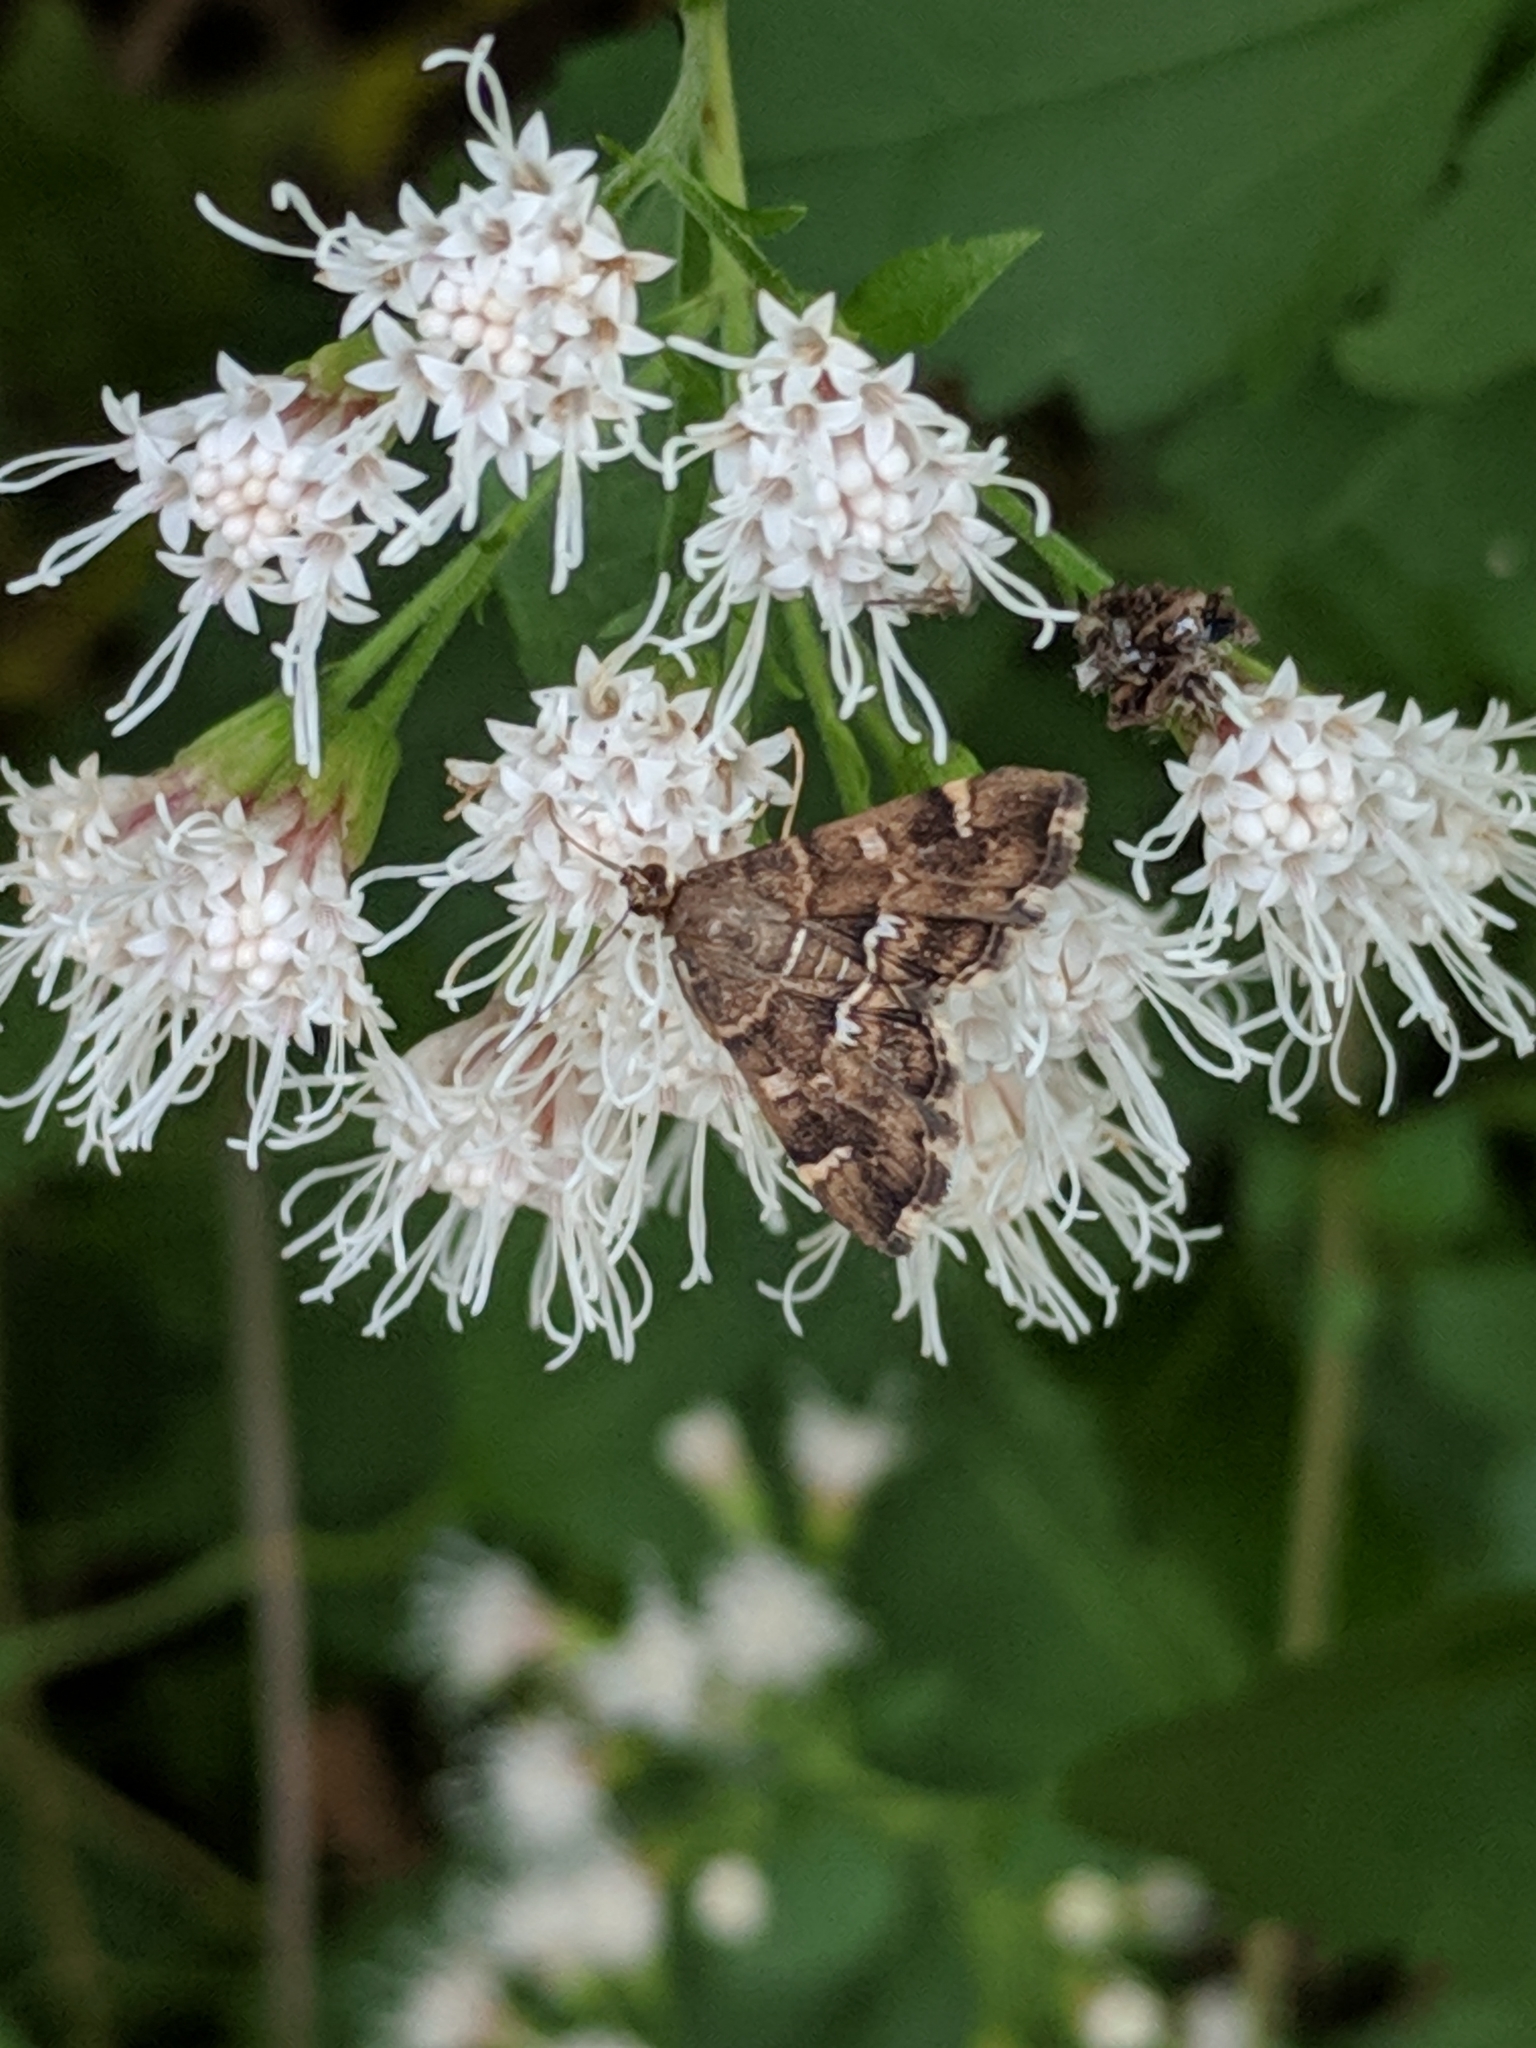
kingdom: Animalia
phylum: Arthropoda
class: Insecta
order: Lepidoptera
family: Crambidae
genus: Hymenia
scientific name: Hymenia perspectalis
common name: Spotted beet webworm
